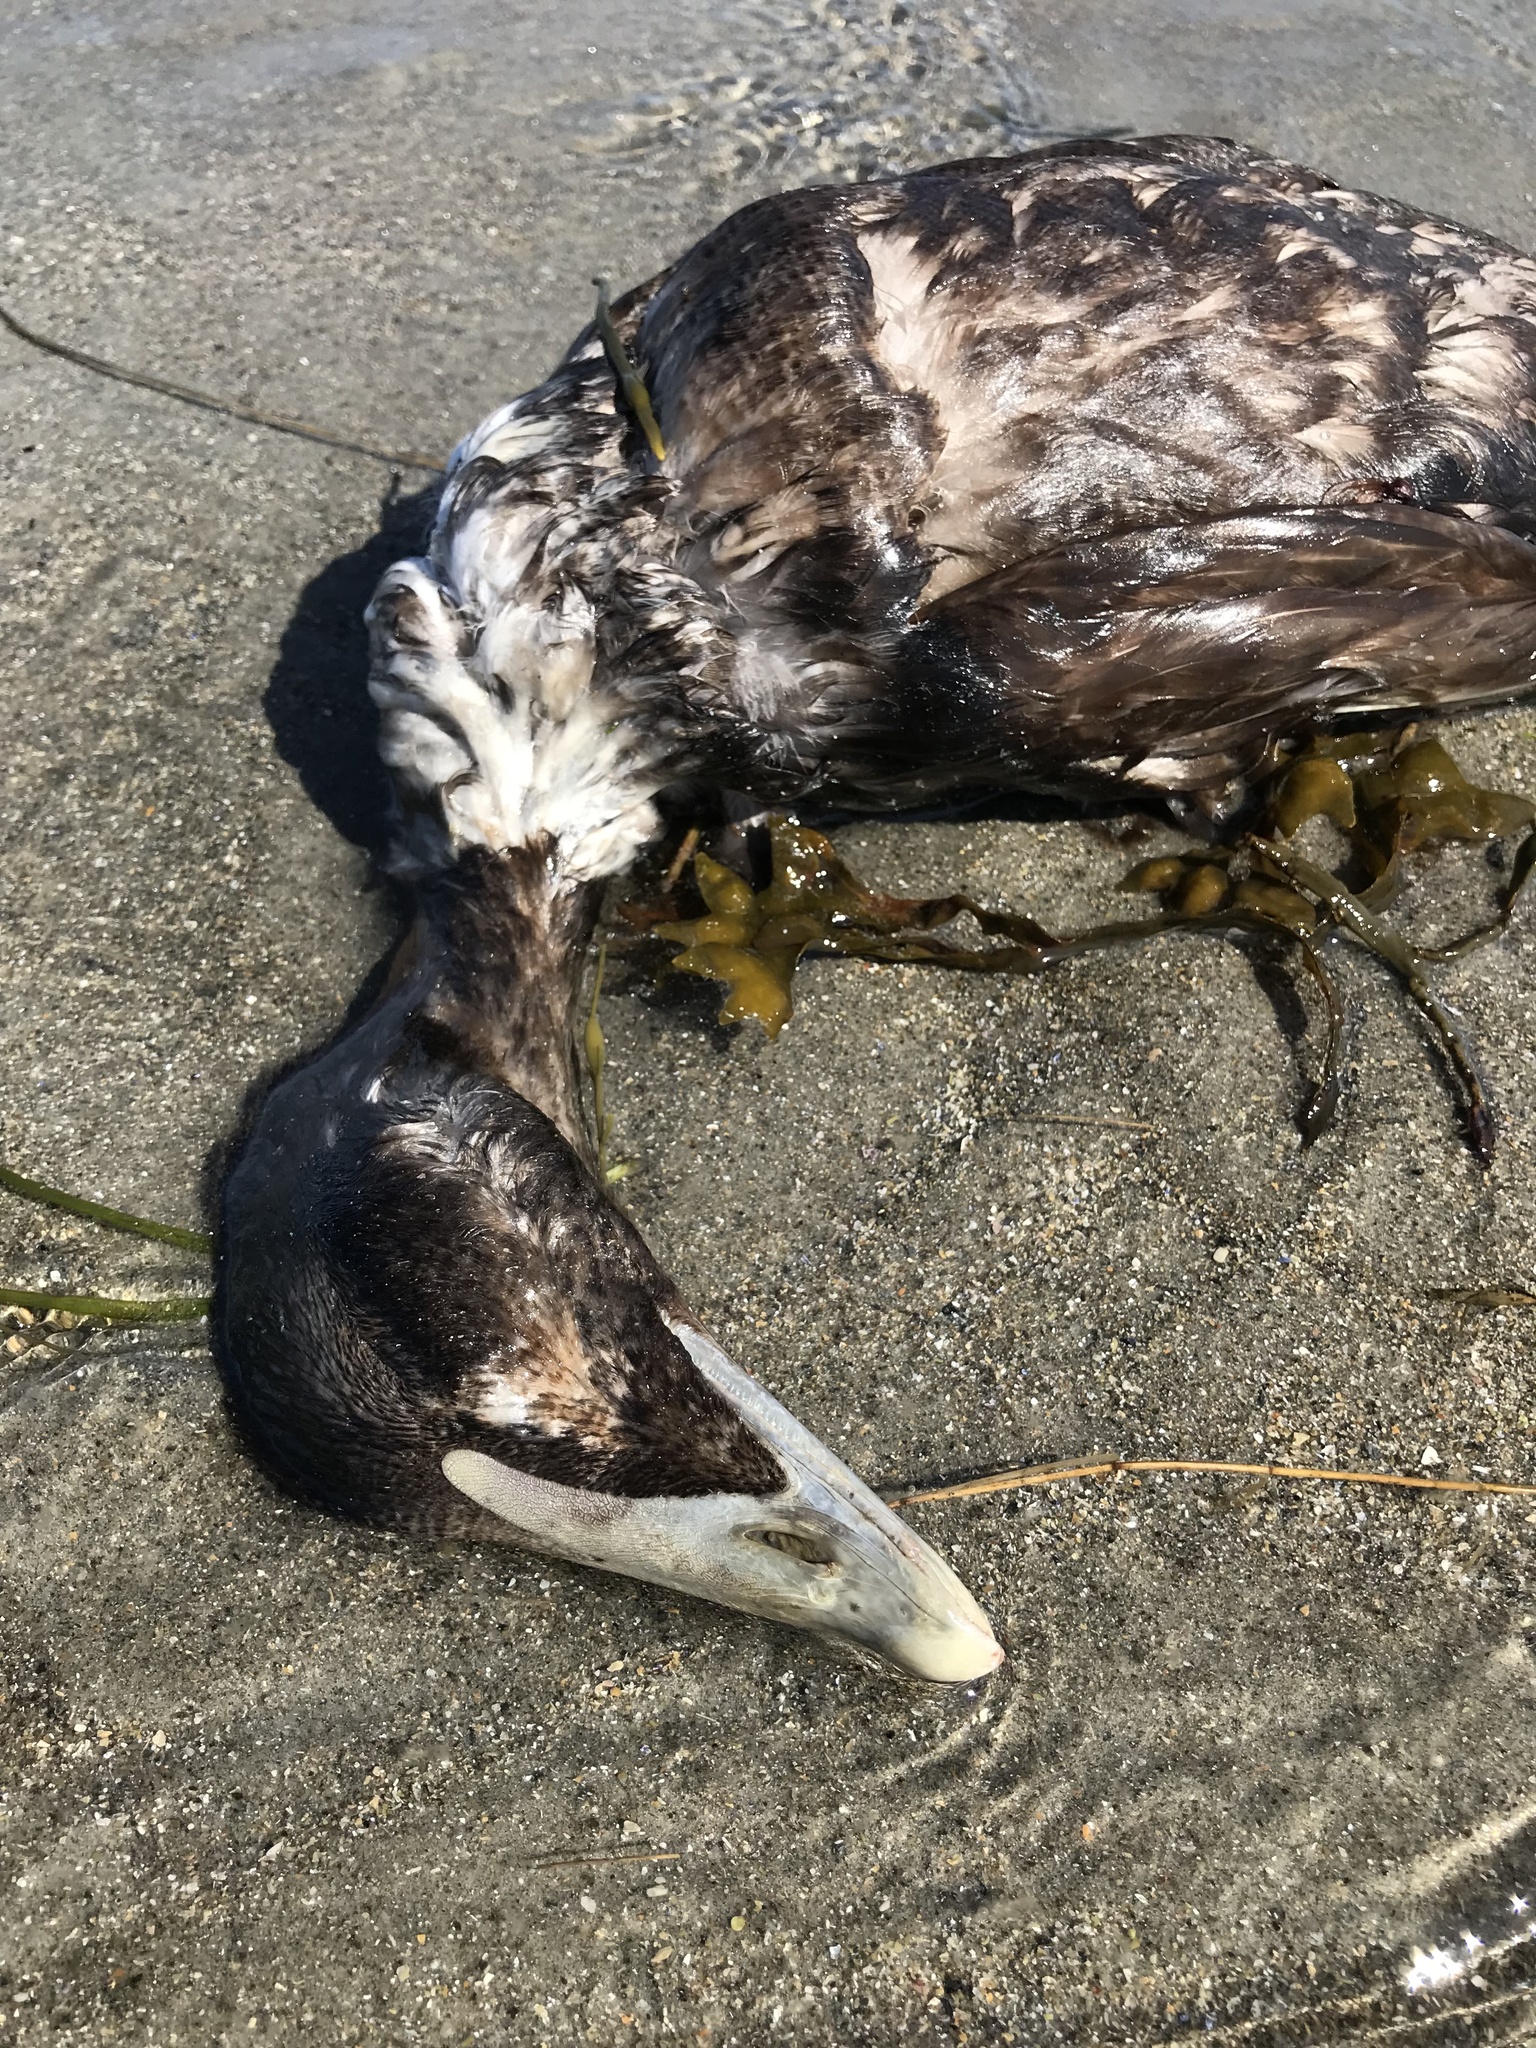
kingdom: Animalia
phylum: Chordata
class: Aves
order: Anseriformes
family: Anatidae
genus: Somateria
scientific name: Somateria mollissima
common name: Common eider
